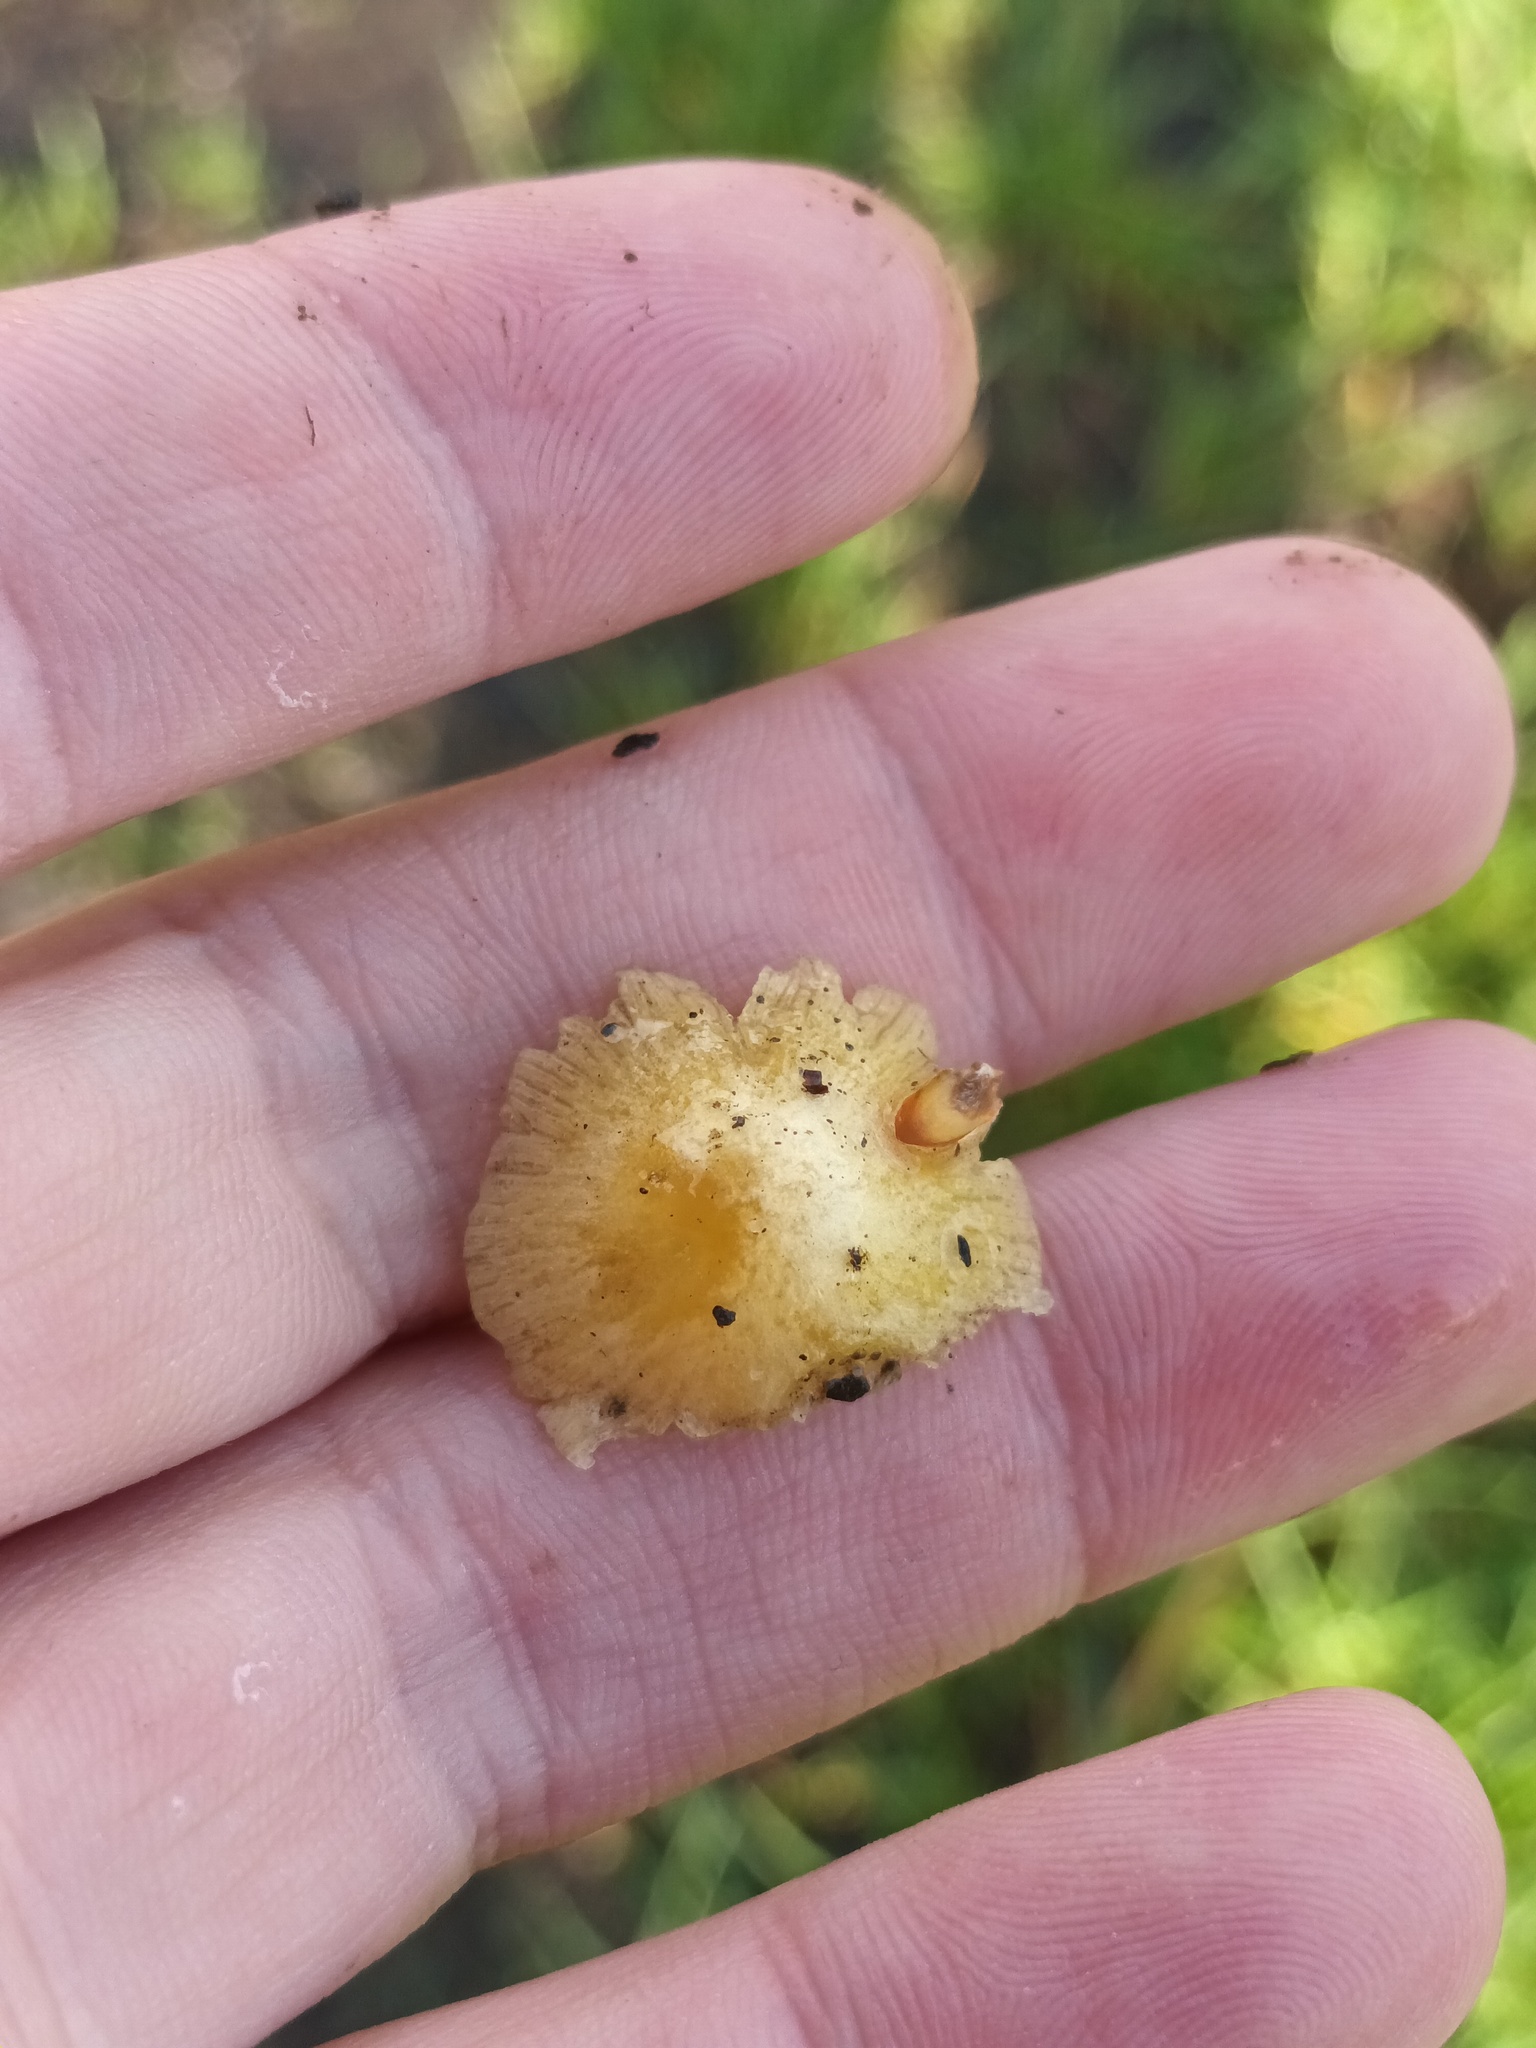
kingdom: Fungi
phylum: Basidiomycota
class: Agaricomycetes
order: Agaricales
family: Bolbitiaceae
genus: Bolbitius
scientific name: Bolbitius titubans
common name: Yellow fieldcap
